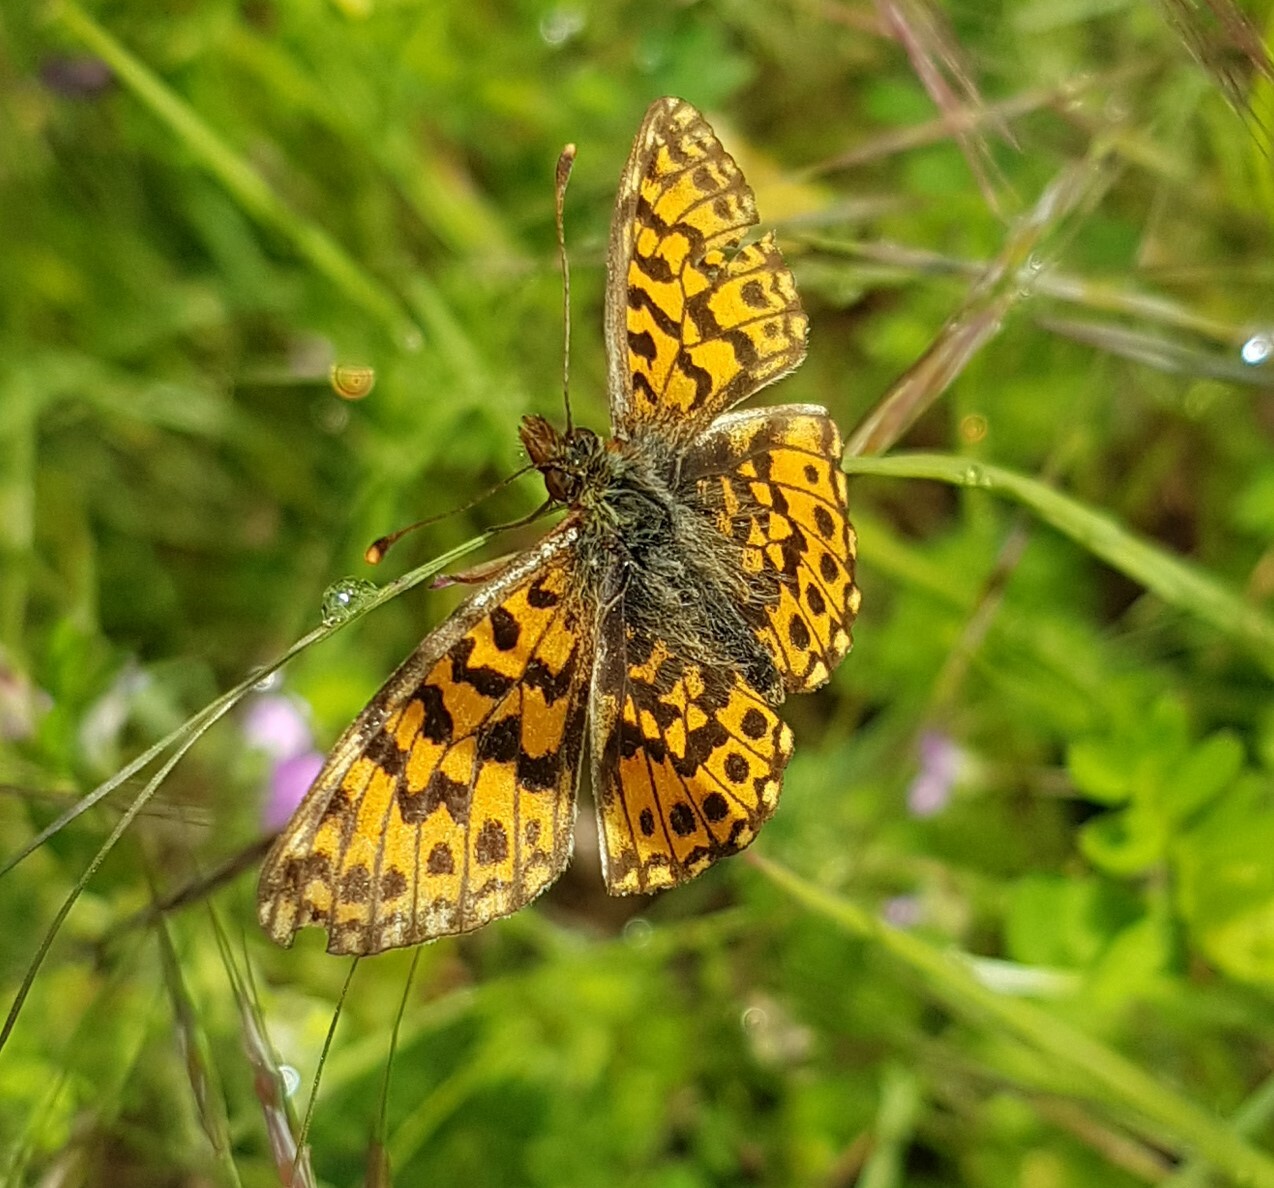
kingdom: Animalia
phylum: Arthropoda
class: Insecta
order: Lepidoptera
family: Nymphalidae
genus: Boloria
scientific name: Boloria dia
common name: Weaver's fritillary
